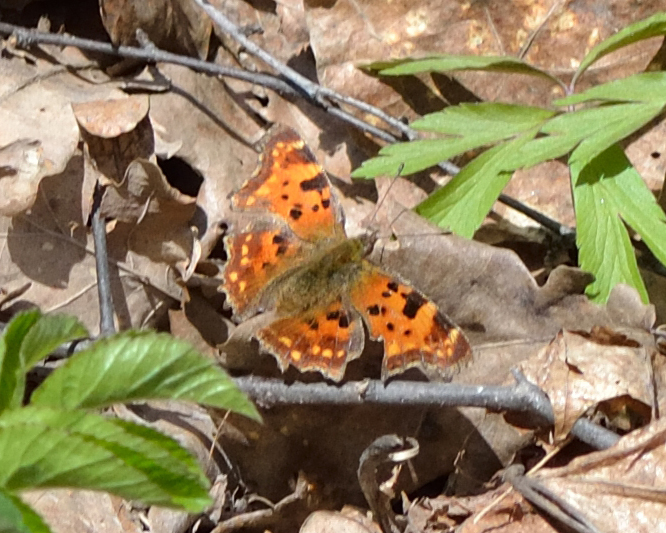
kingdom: Animalia
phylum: Arthropoda
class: Insecta
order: Lepidoptera
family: Nymphalidae
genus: Polygonia
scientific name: Polygonia c-album
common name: Comma
